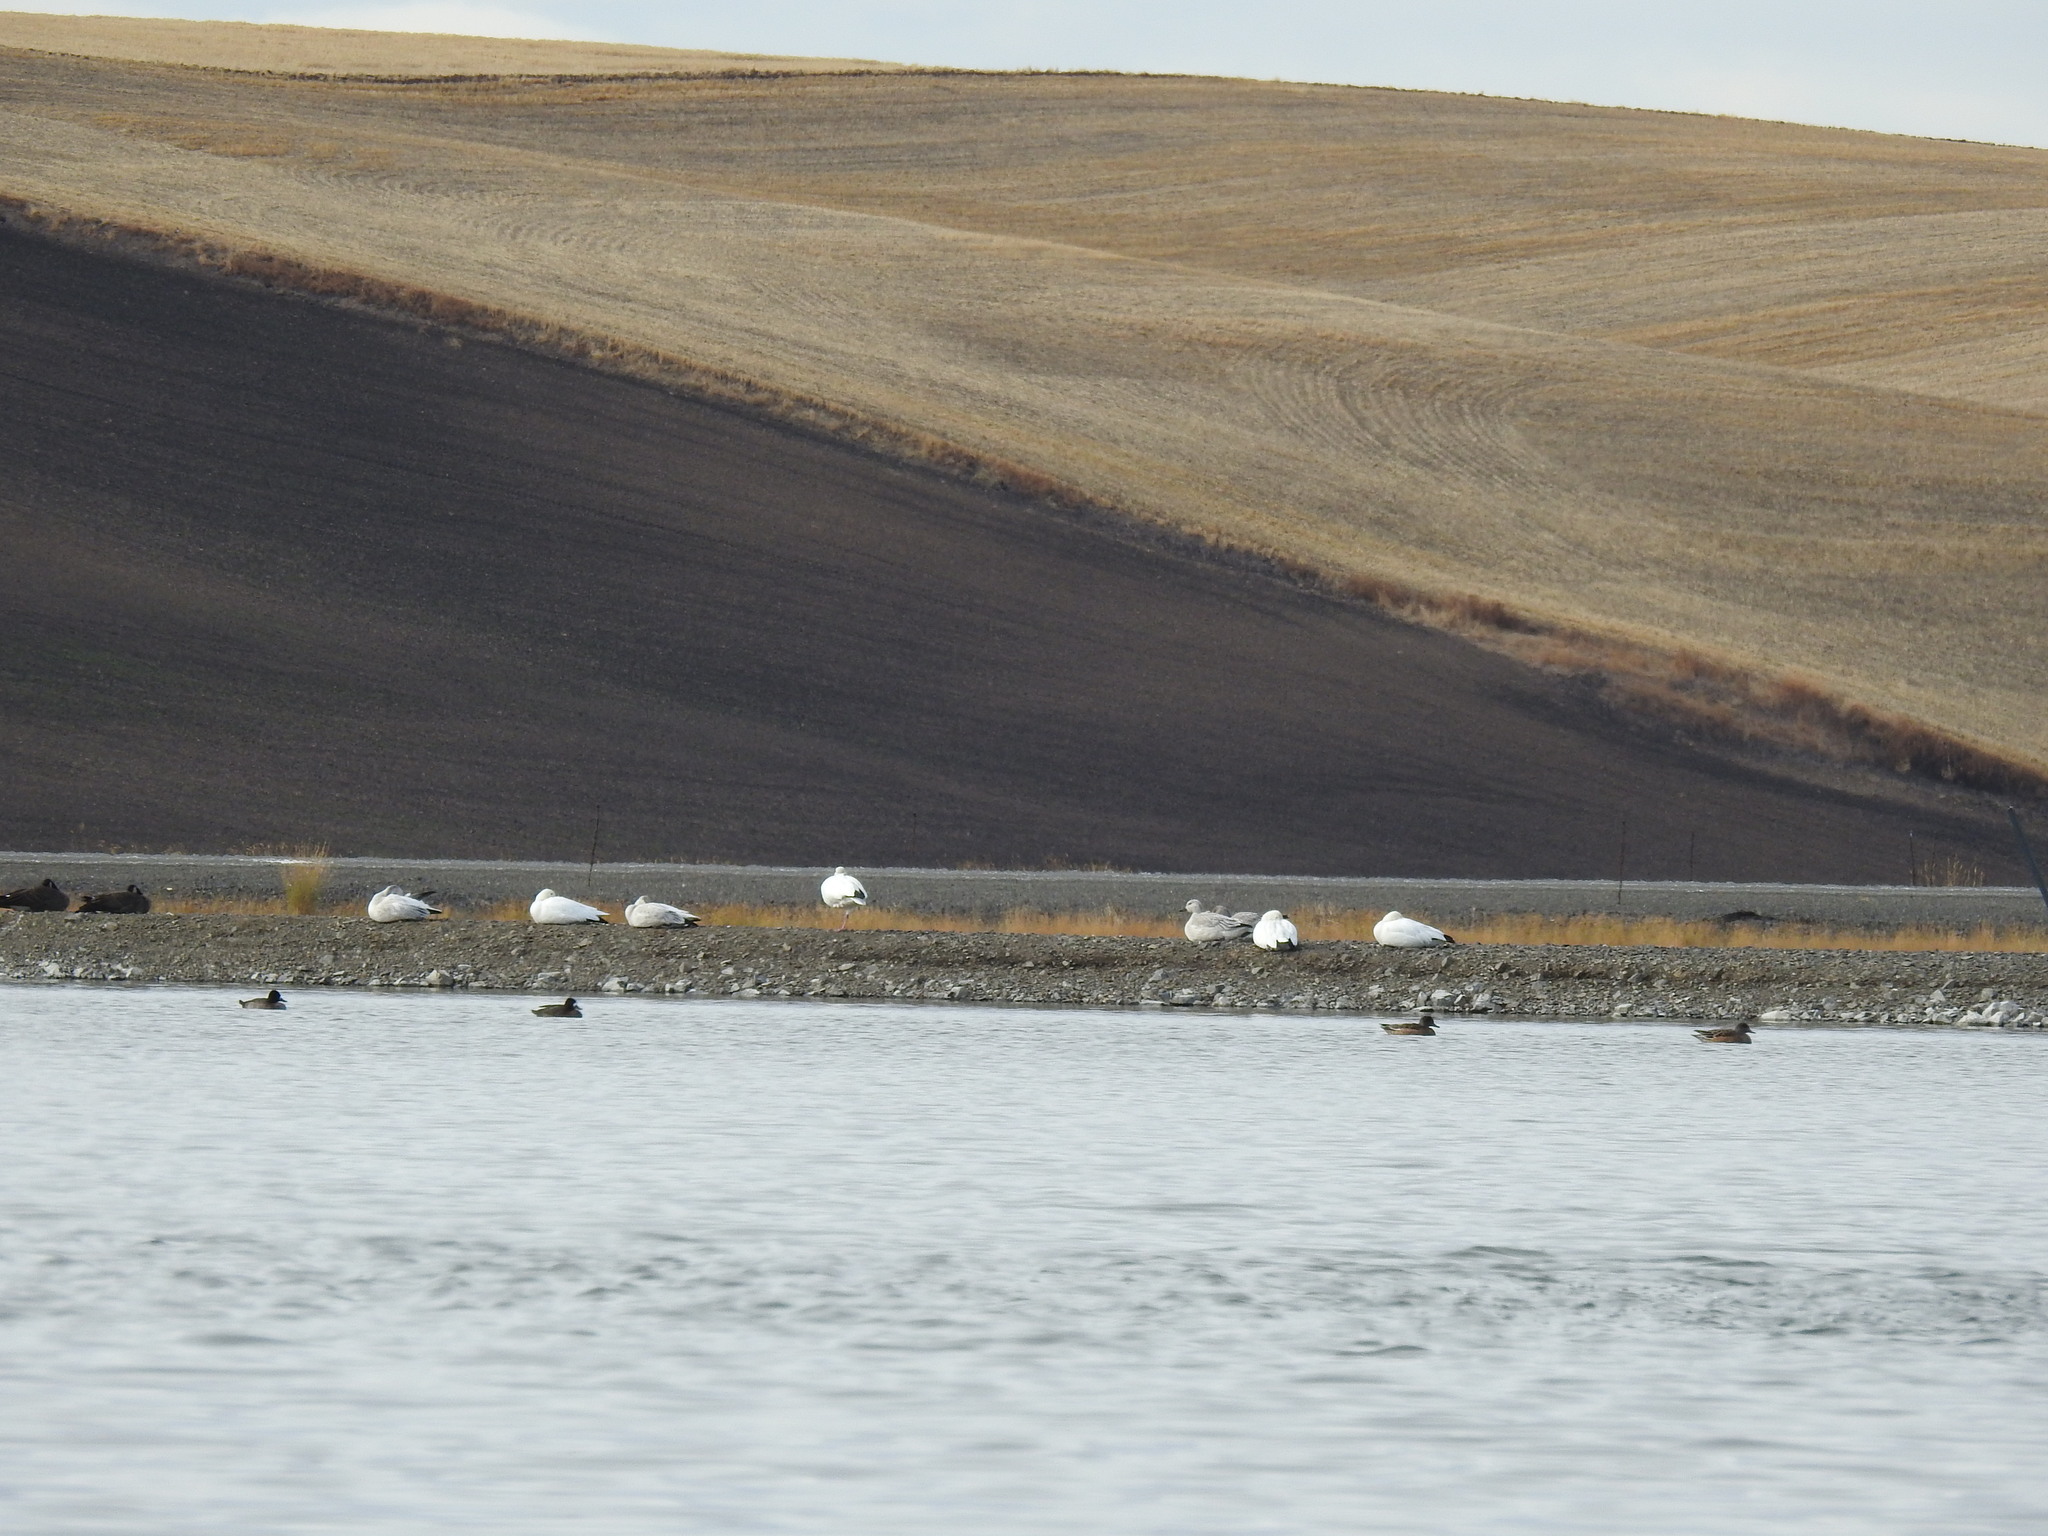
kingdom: Animalia
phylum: Chordata
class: Aves
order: Anseriformes
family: Anatidae
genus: Anser
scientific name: Anser caerulescens
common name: Snow goose
